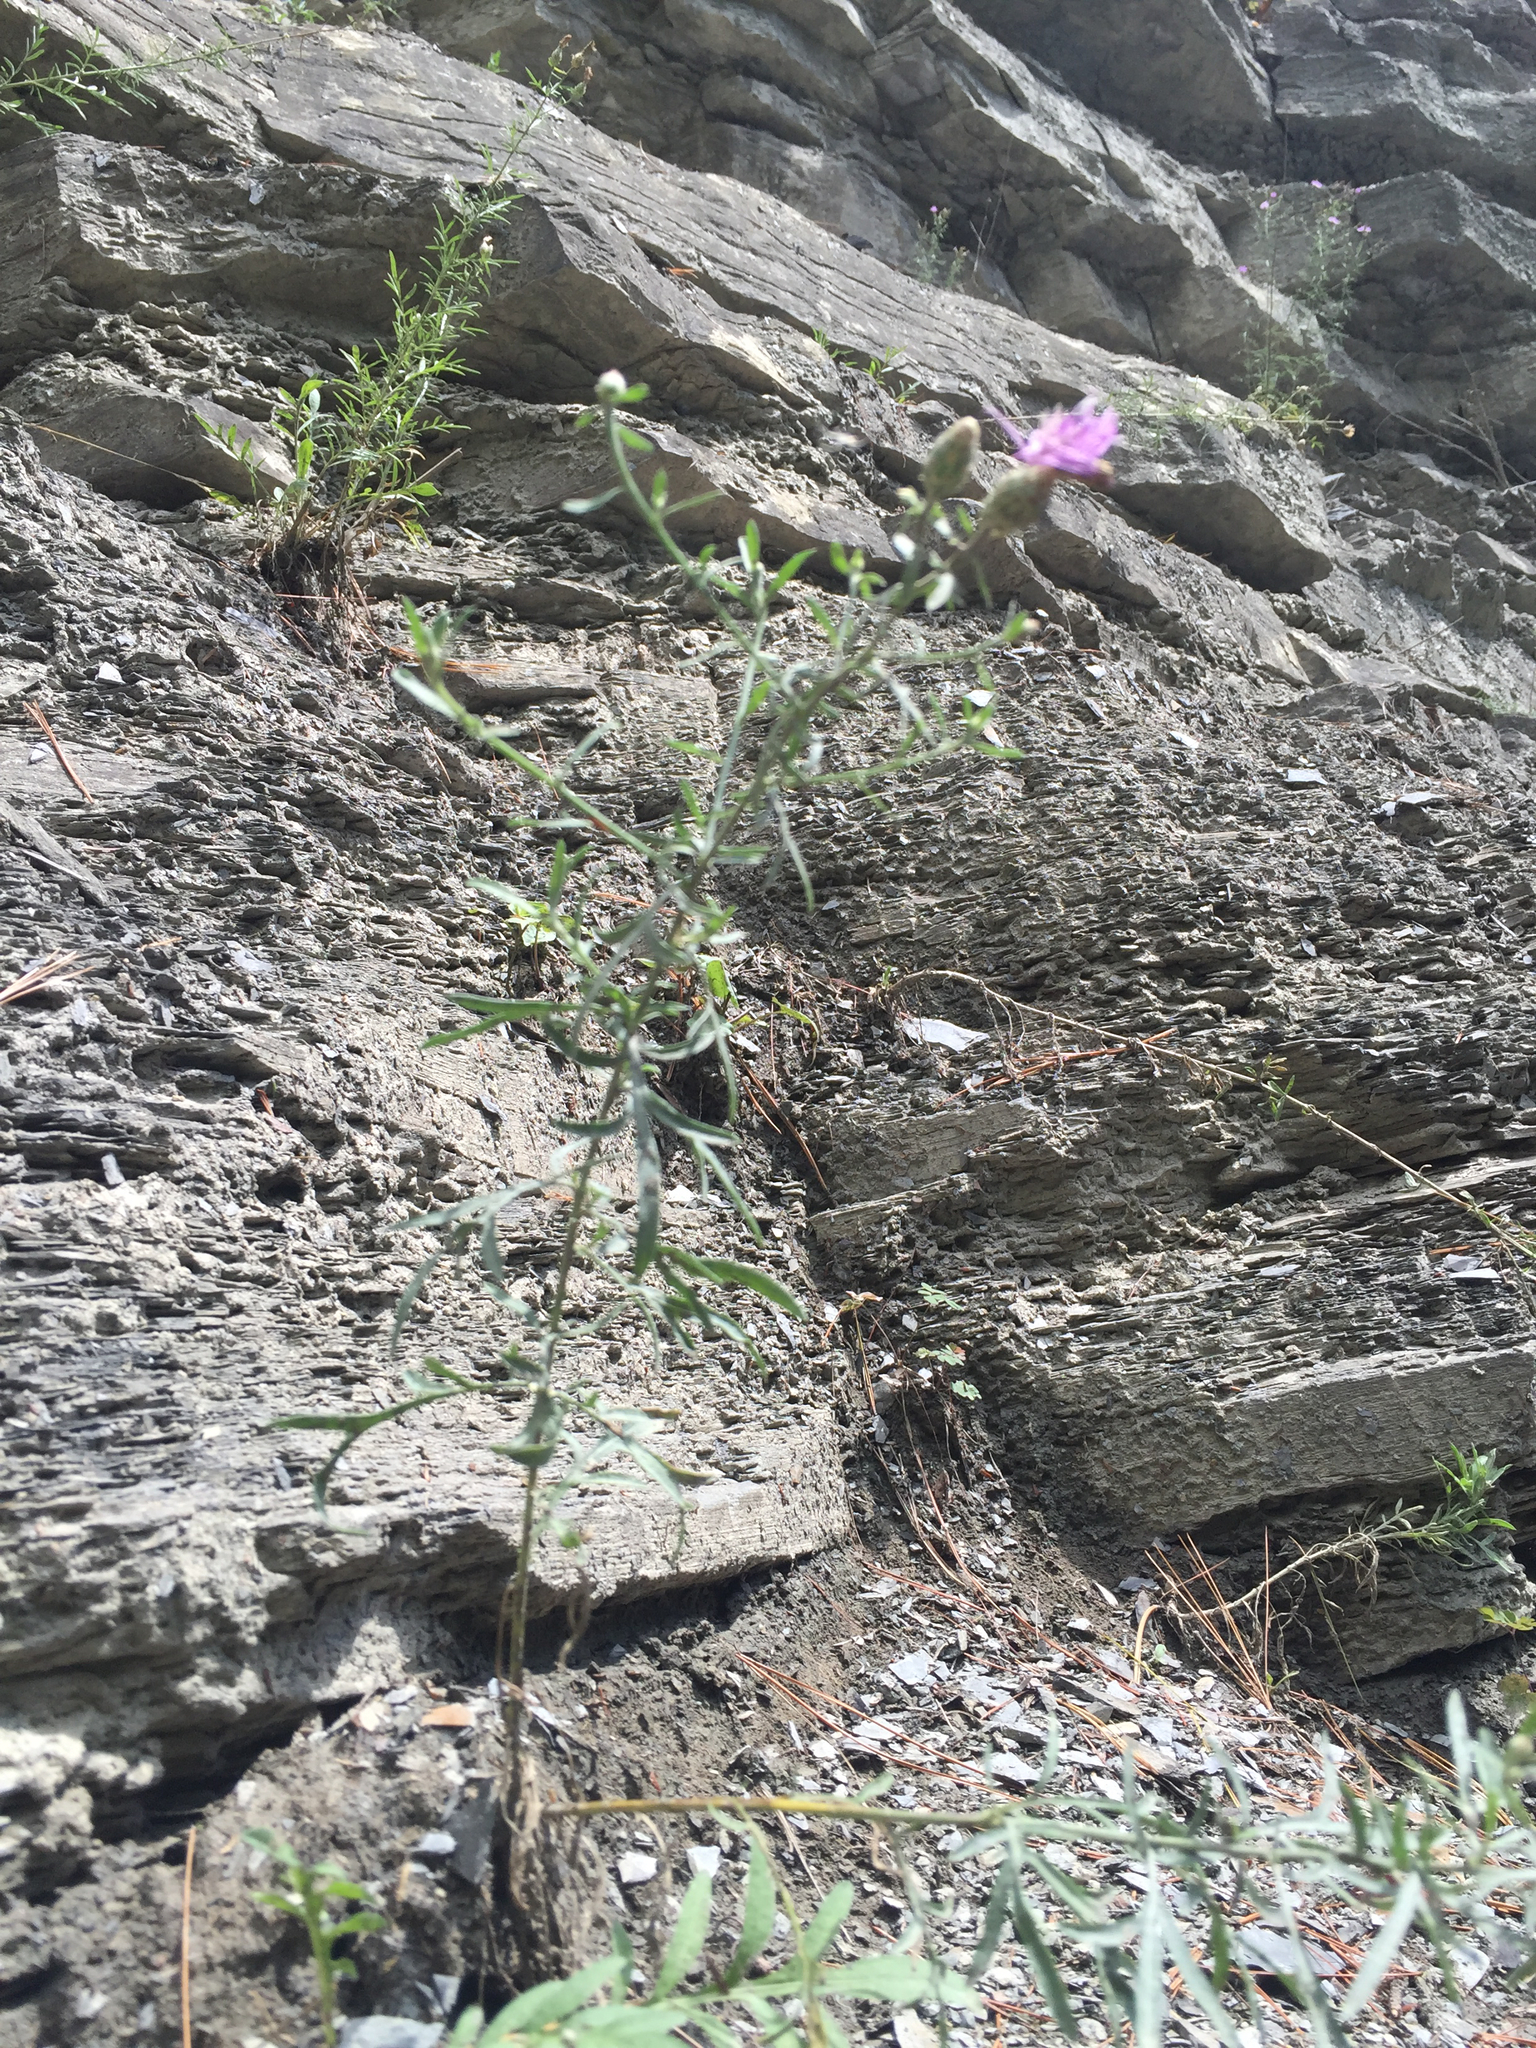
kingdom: Plantae
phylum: Tracheophyta
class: Magnoliopsida
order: Asterales
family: Asteraceae
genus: Centaurea
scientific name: Centaurea australis
